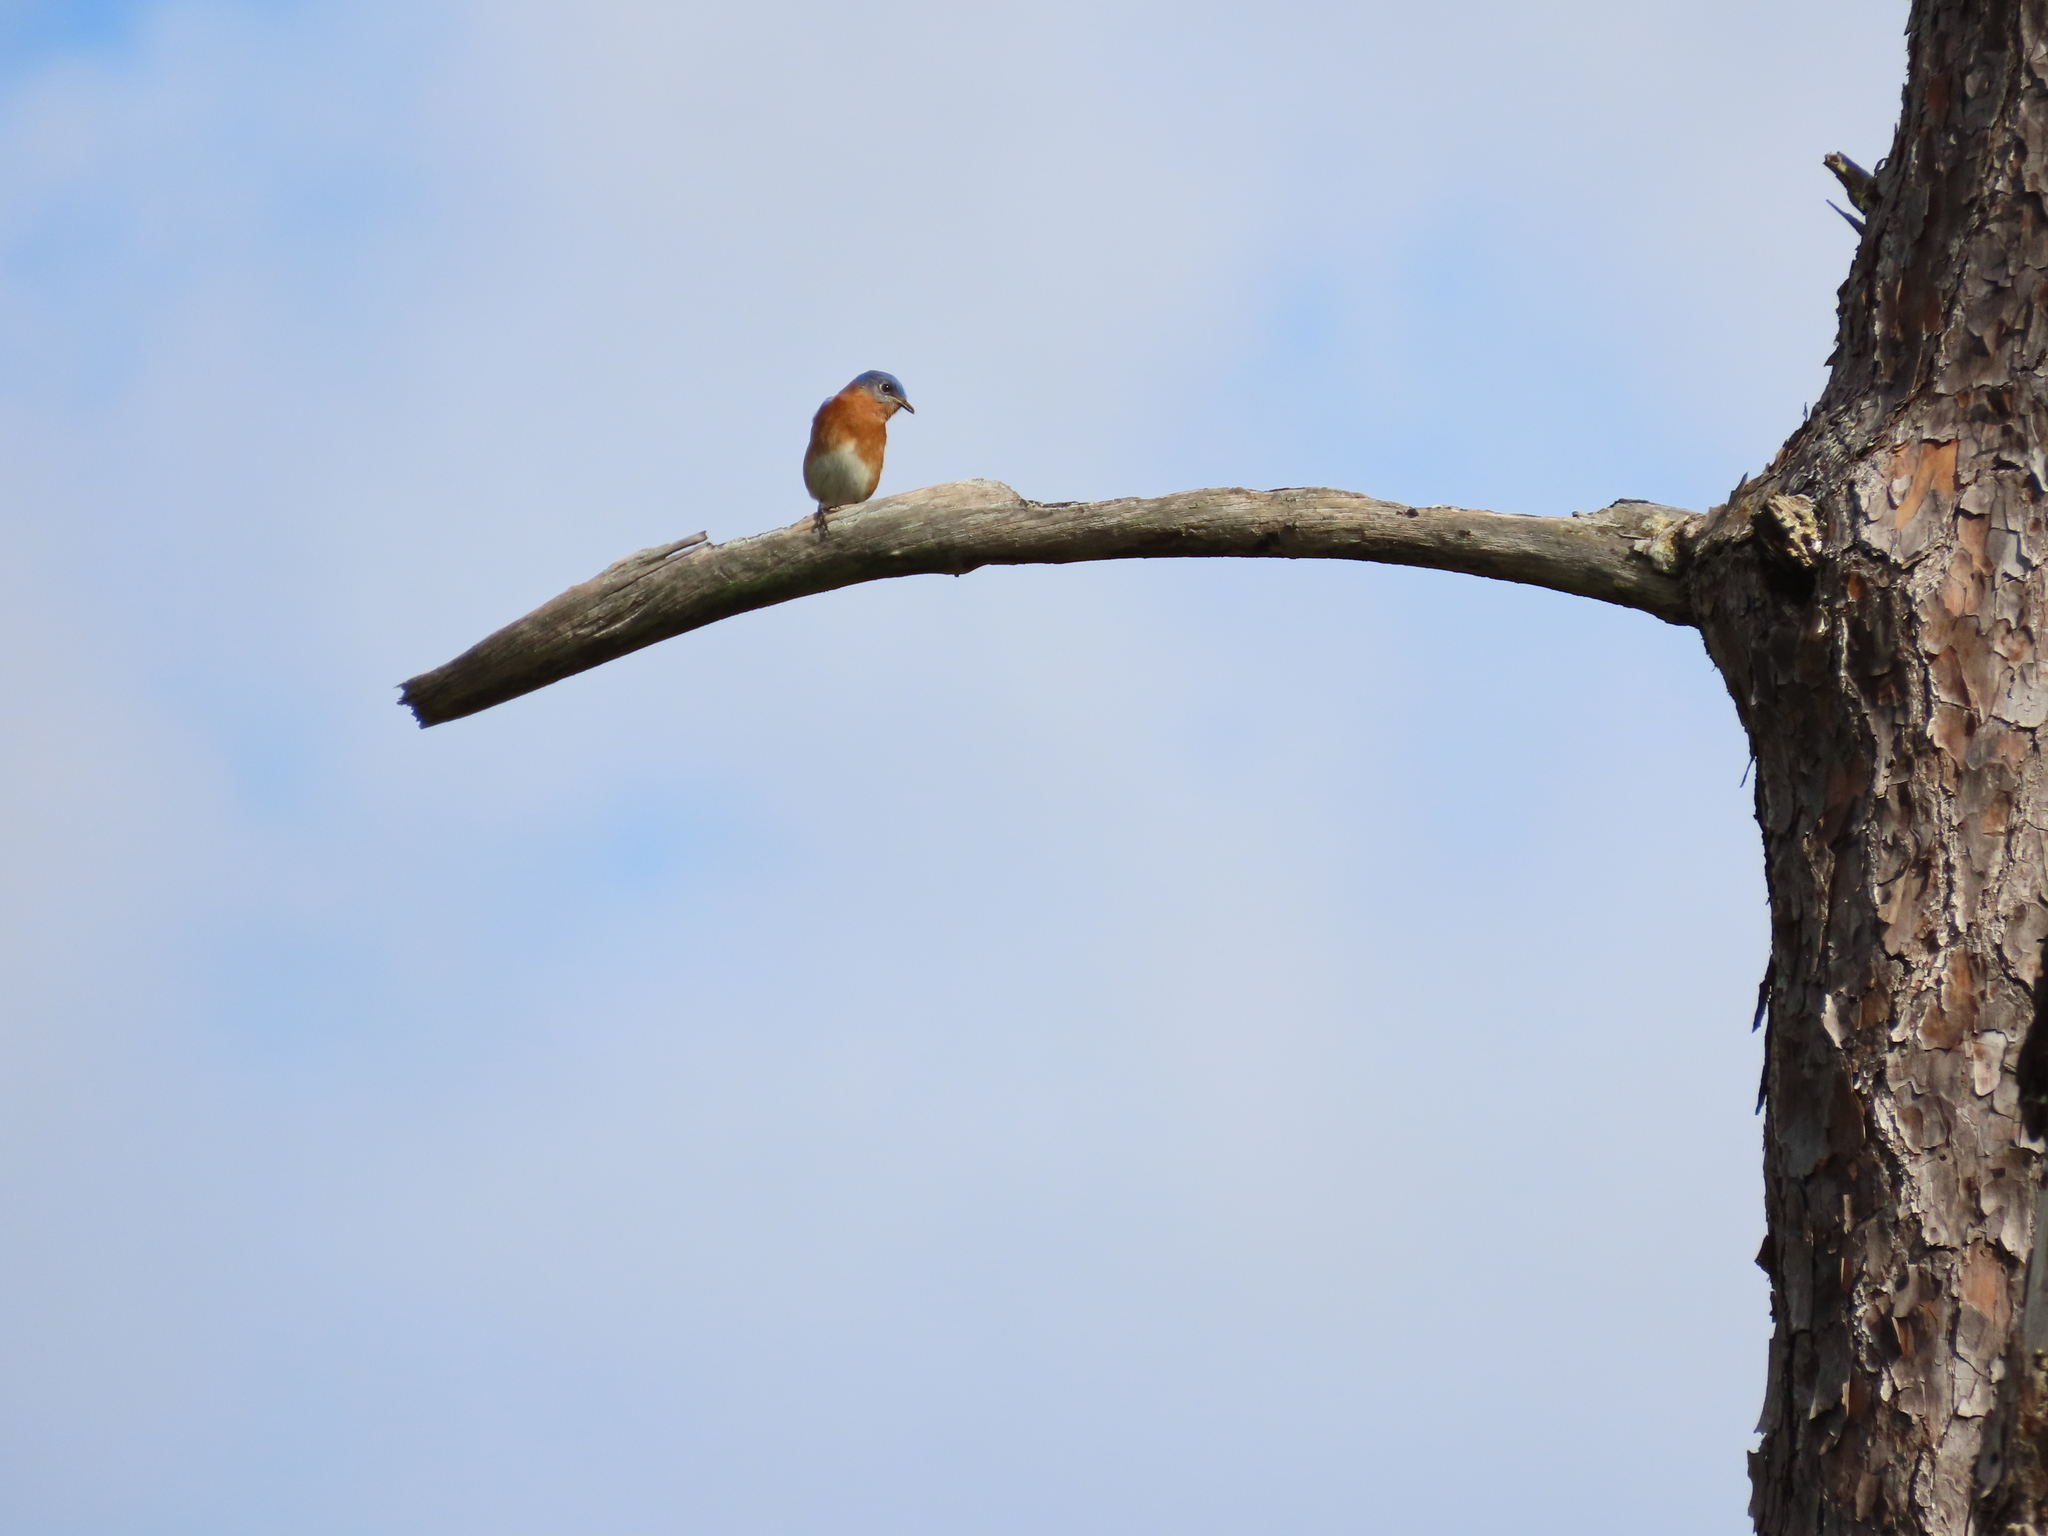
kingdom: Animalia
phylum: Chordata
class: Aves
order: Passeriformes
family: Turdidae
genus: Sialia
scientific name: Sialia sialis
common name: Eastern bluebird
